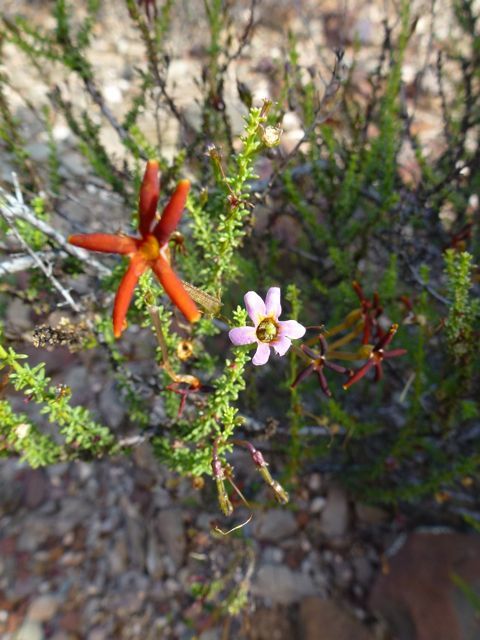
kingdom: Plantae
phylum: Tracheophyta
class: Magnoliopsida
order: Lamiales
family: Scrophulariaceae
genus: Jamesbrittenia
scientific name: Jamesbrittenia atropurpurea
